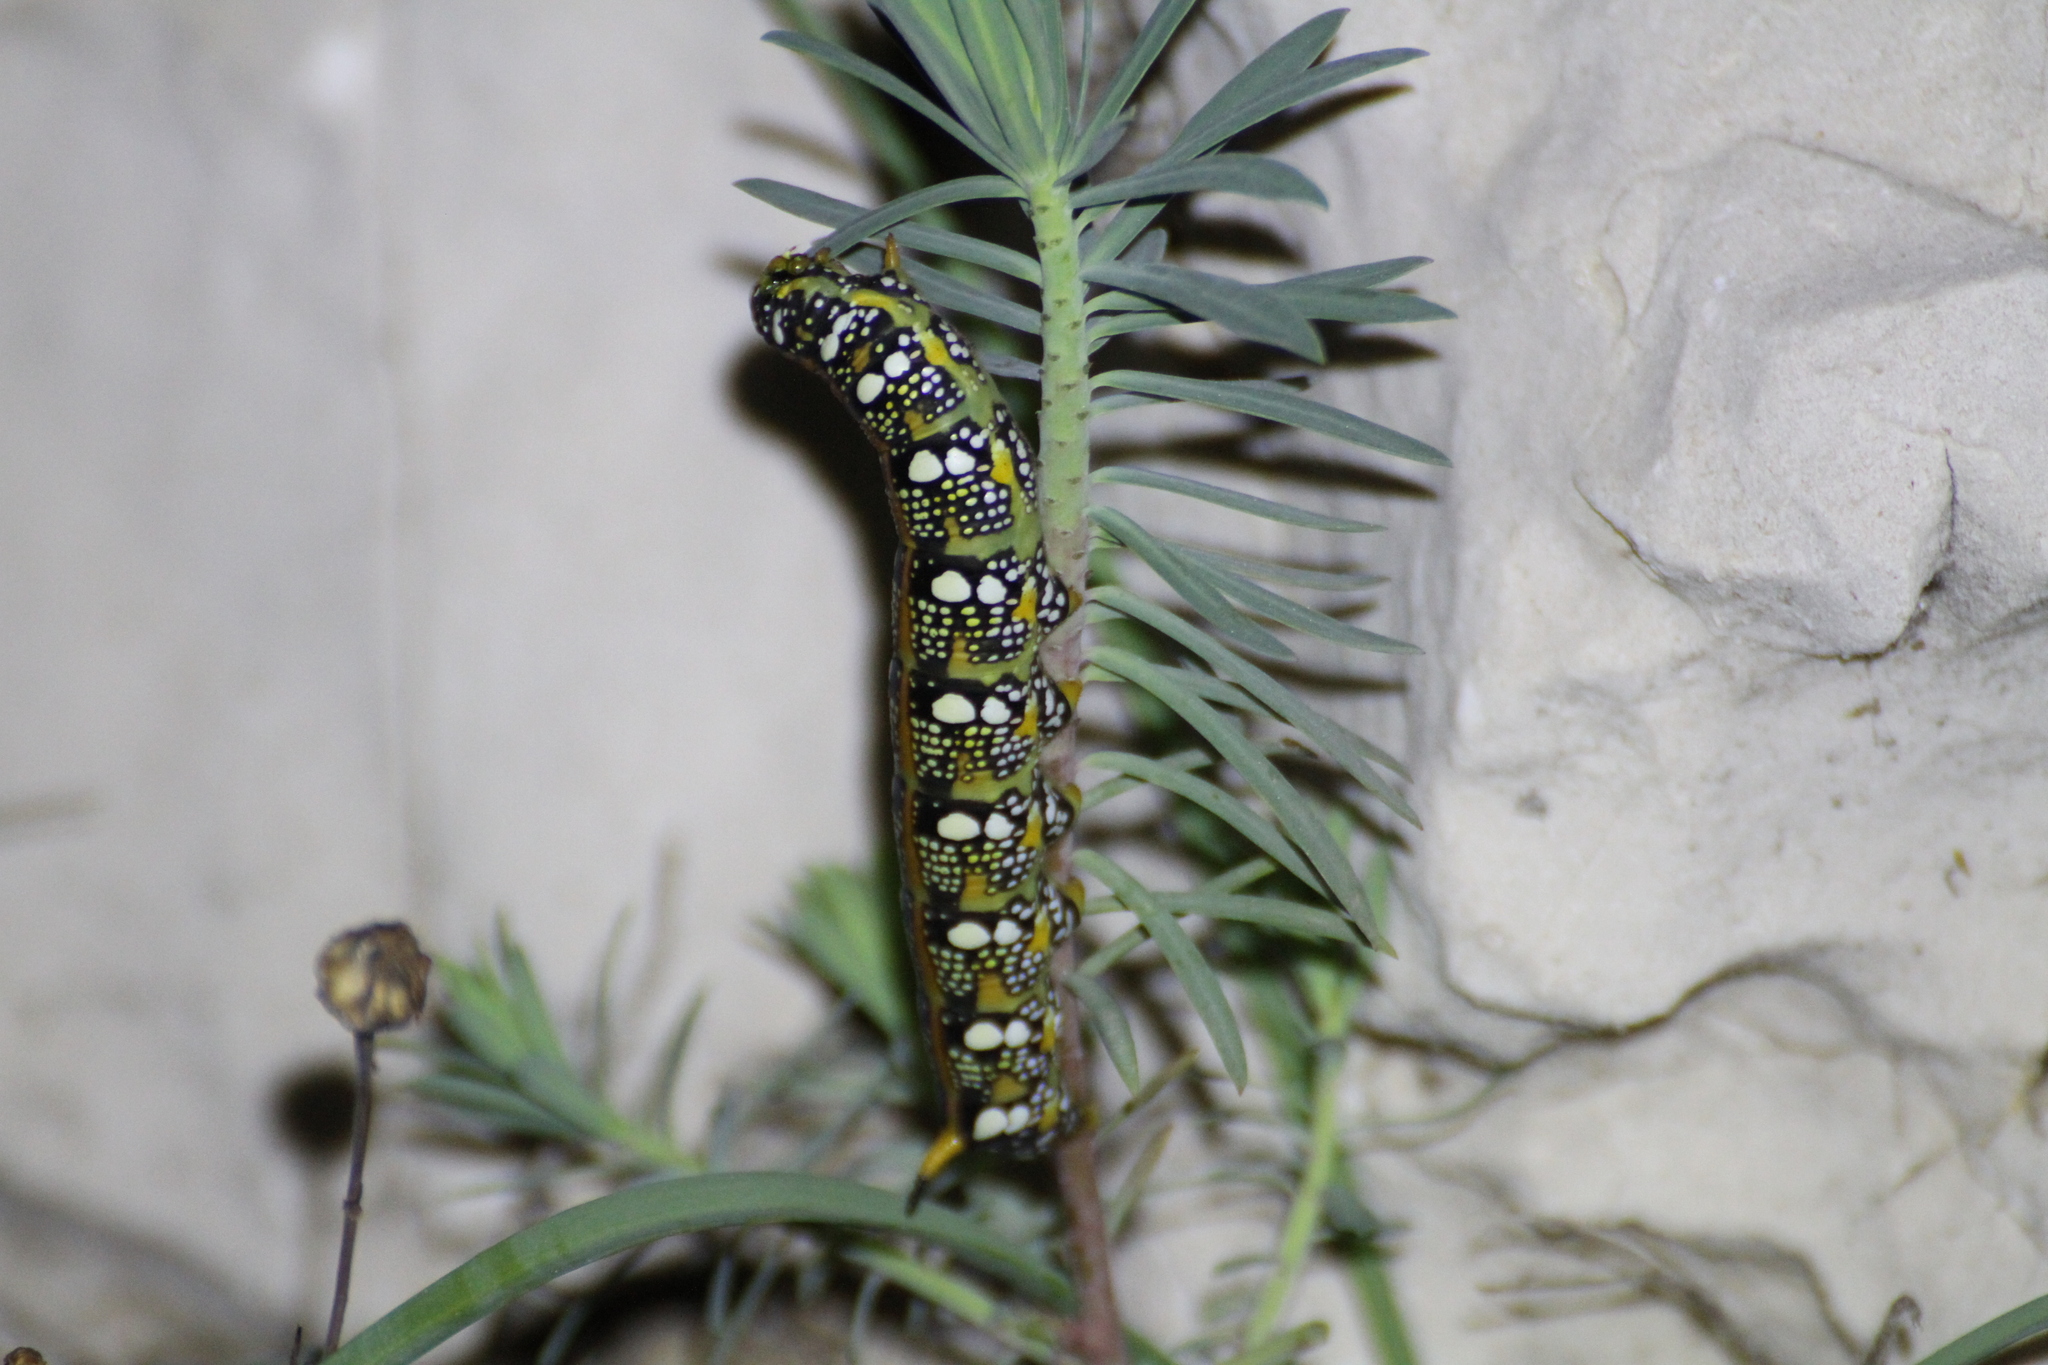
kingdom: Animalia
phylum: Arthropoda
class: Insecta
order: Lepidoptera
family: Sphingidae
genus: Hyles
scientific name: Hyles euphorbiae
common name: Spurge hawk-moth
